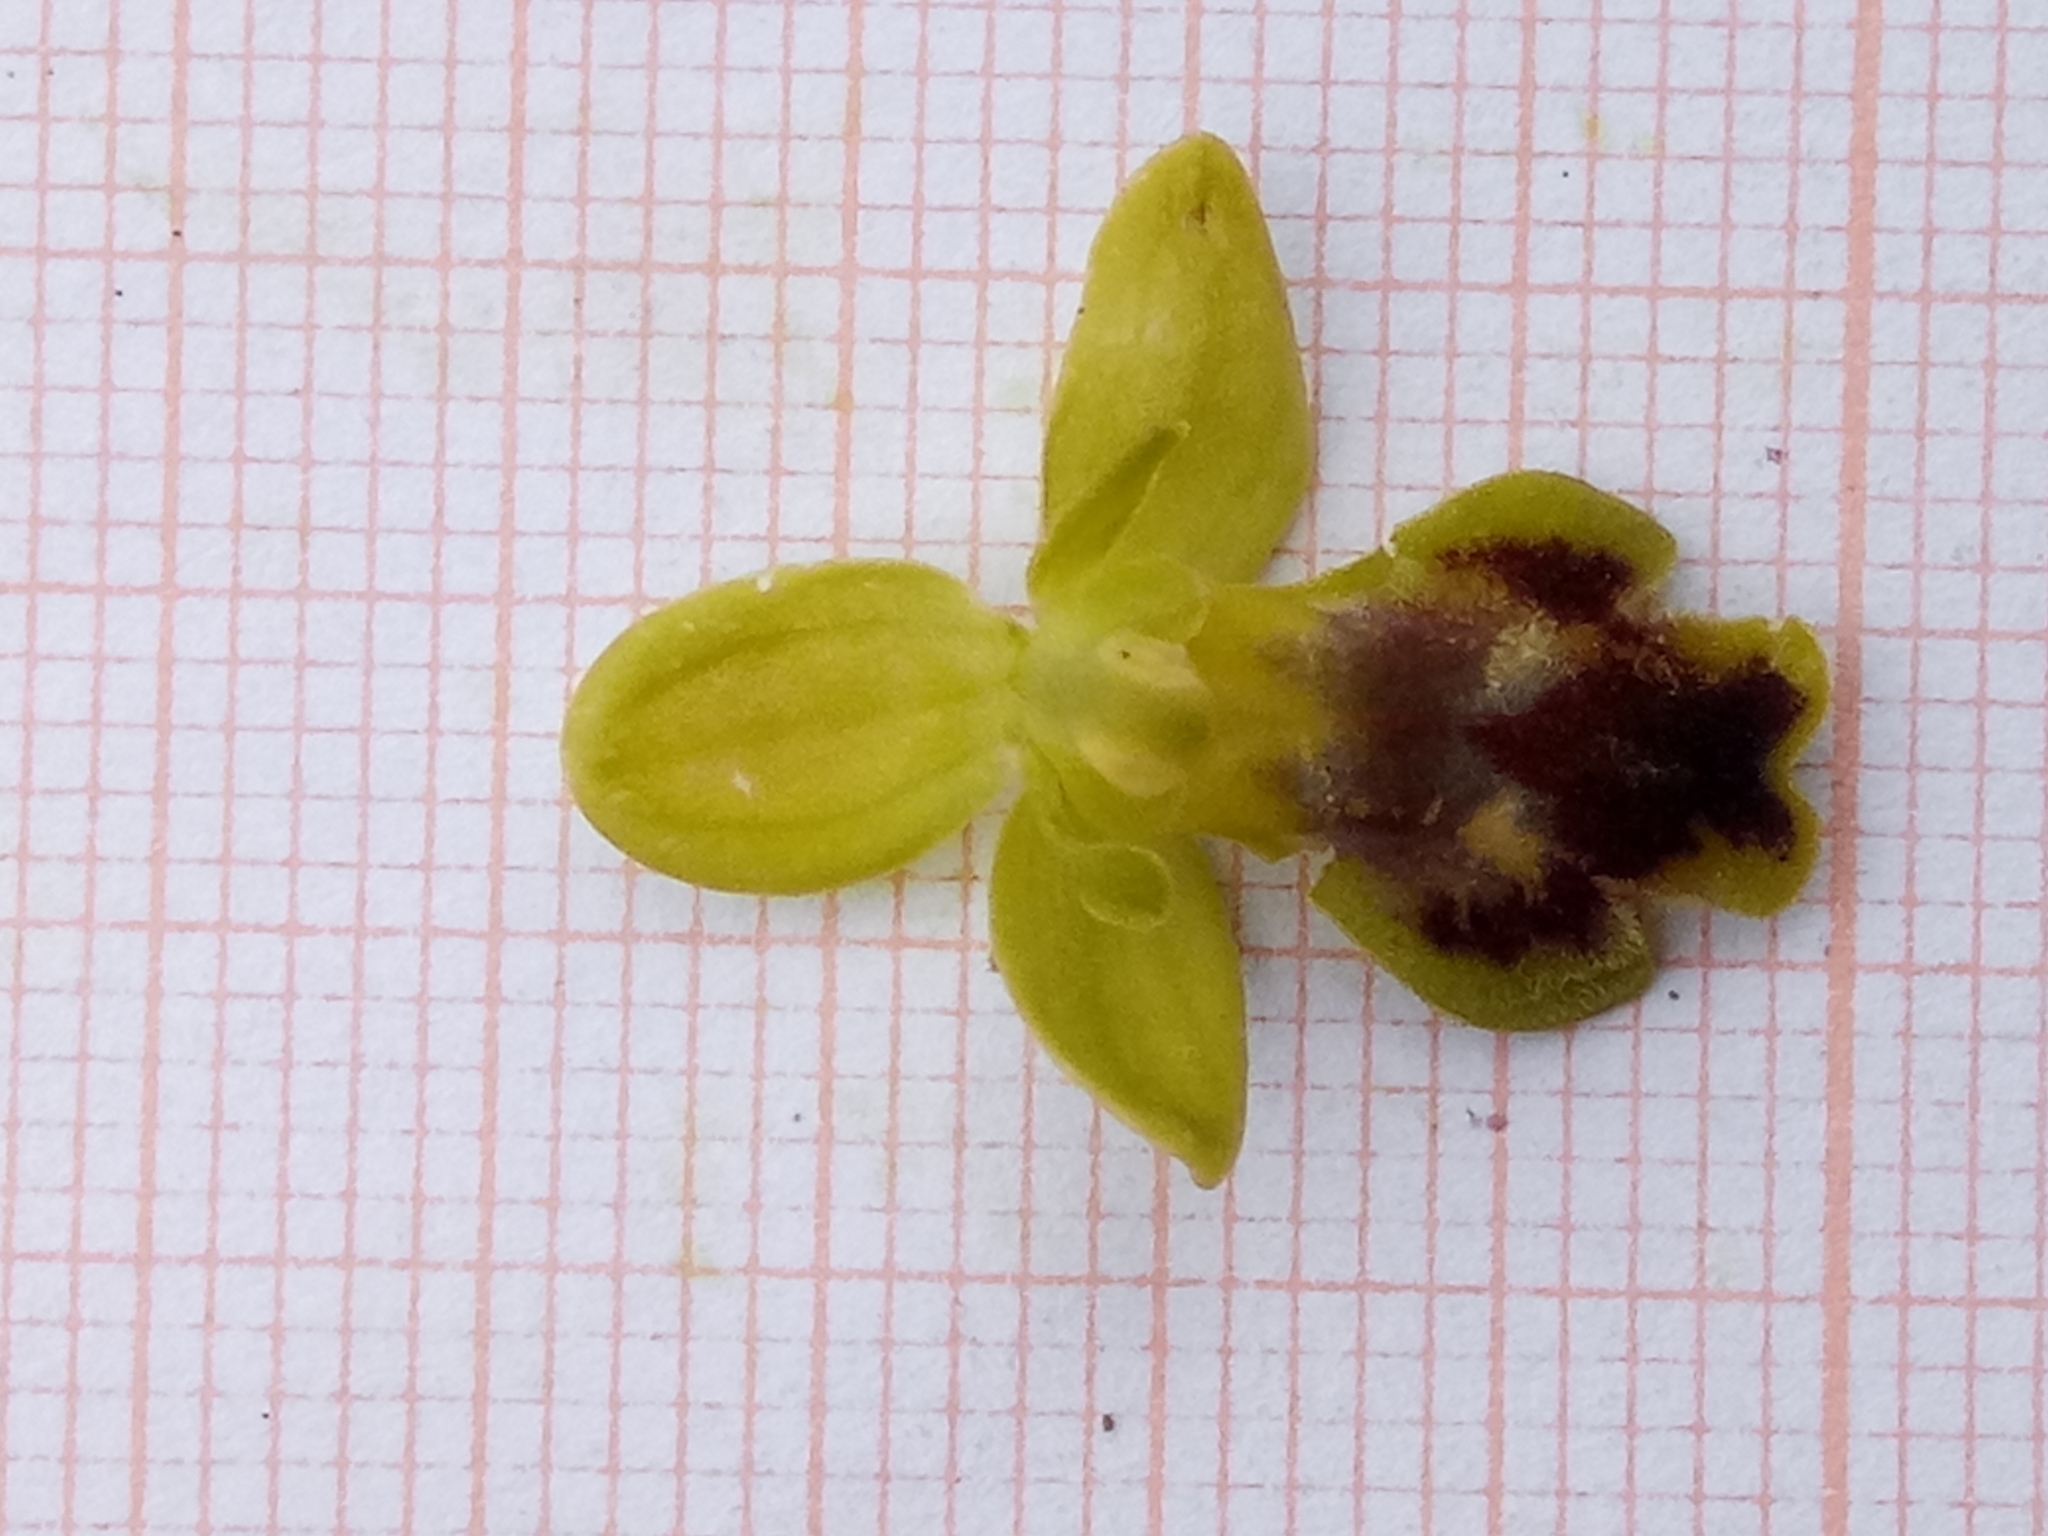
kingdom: Plantae
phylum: Tracheophyta
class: Liliopsida
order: Asparagales
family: Orchidaceae
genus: Ophrys
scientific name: Ophrys battandieri
